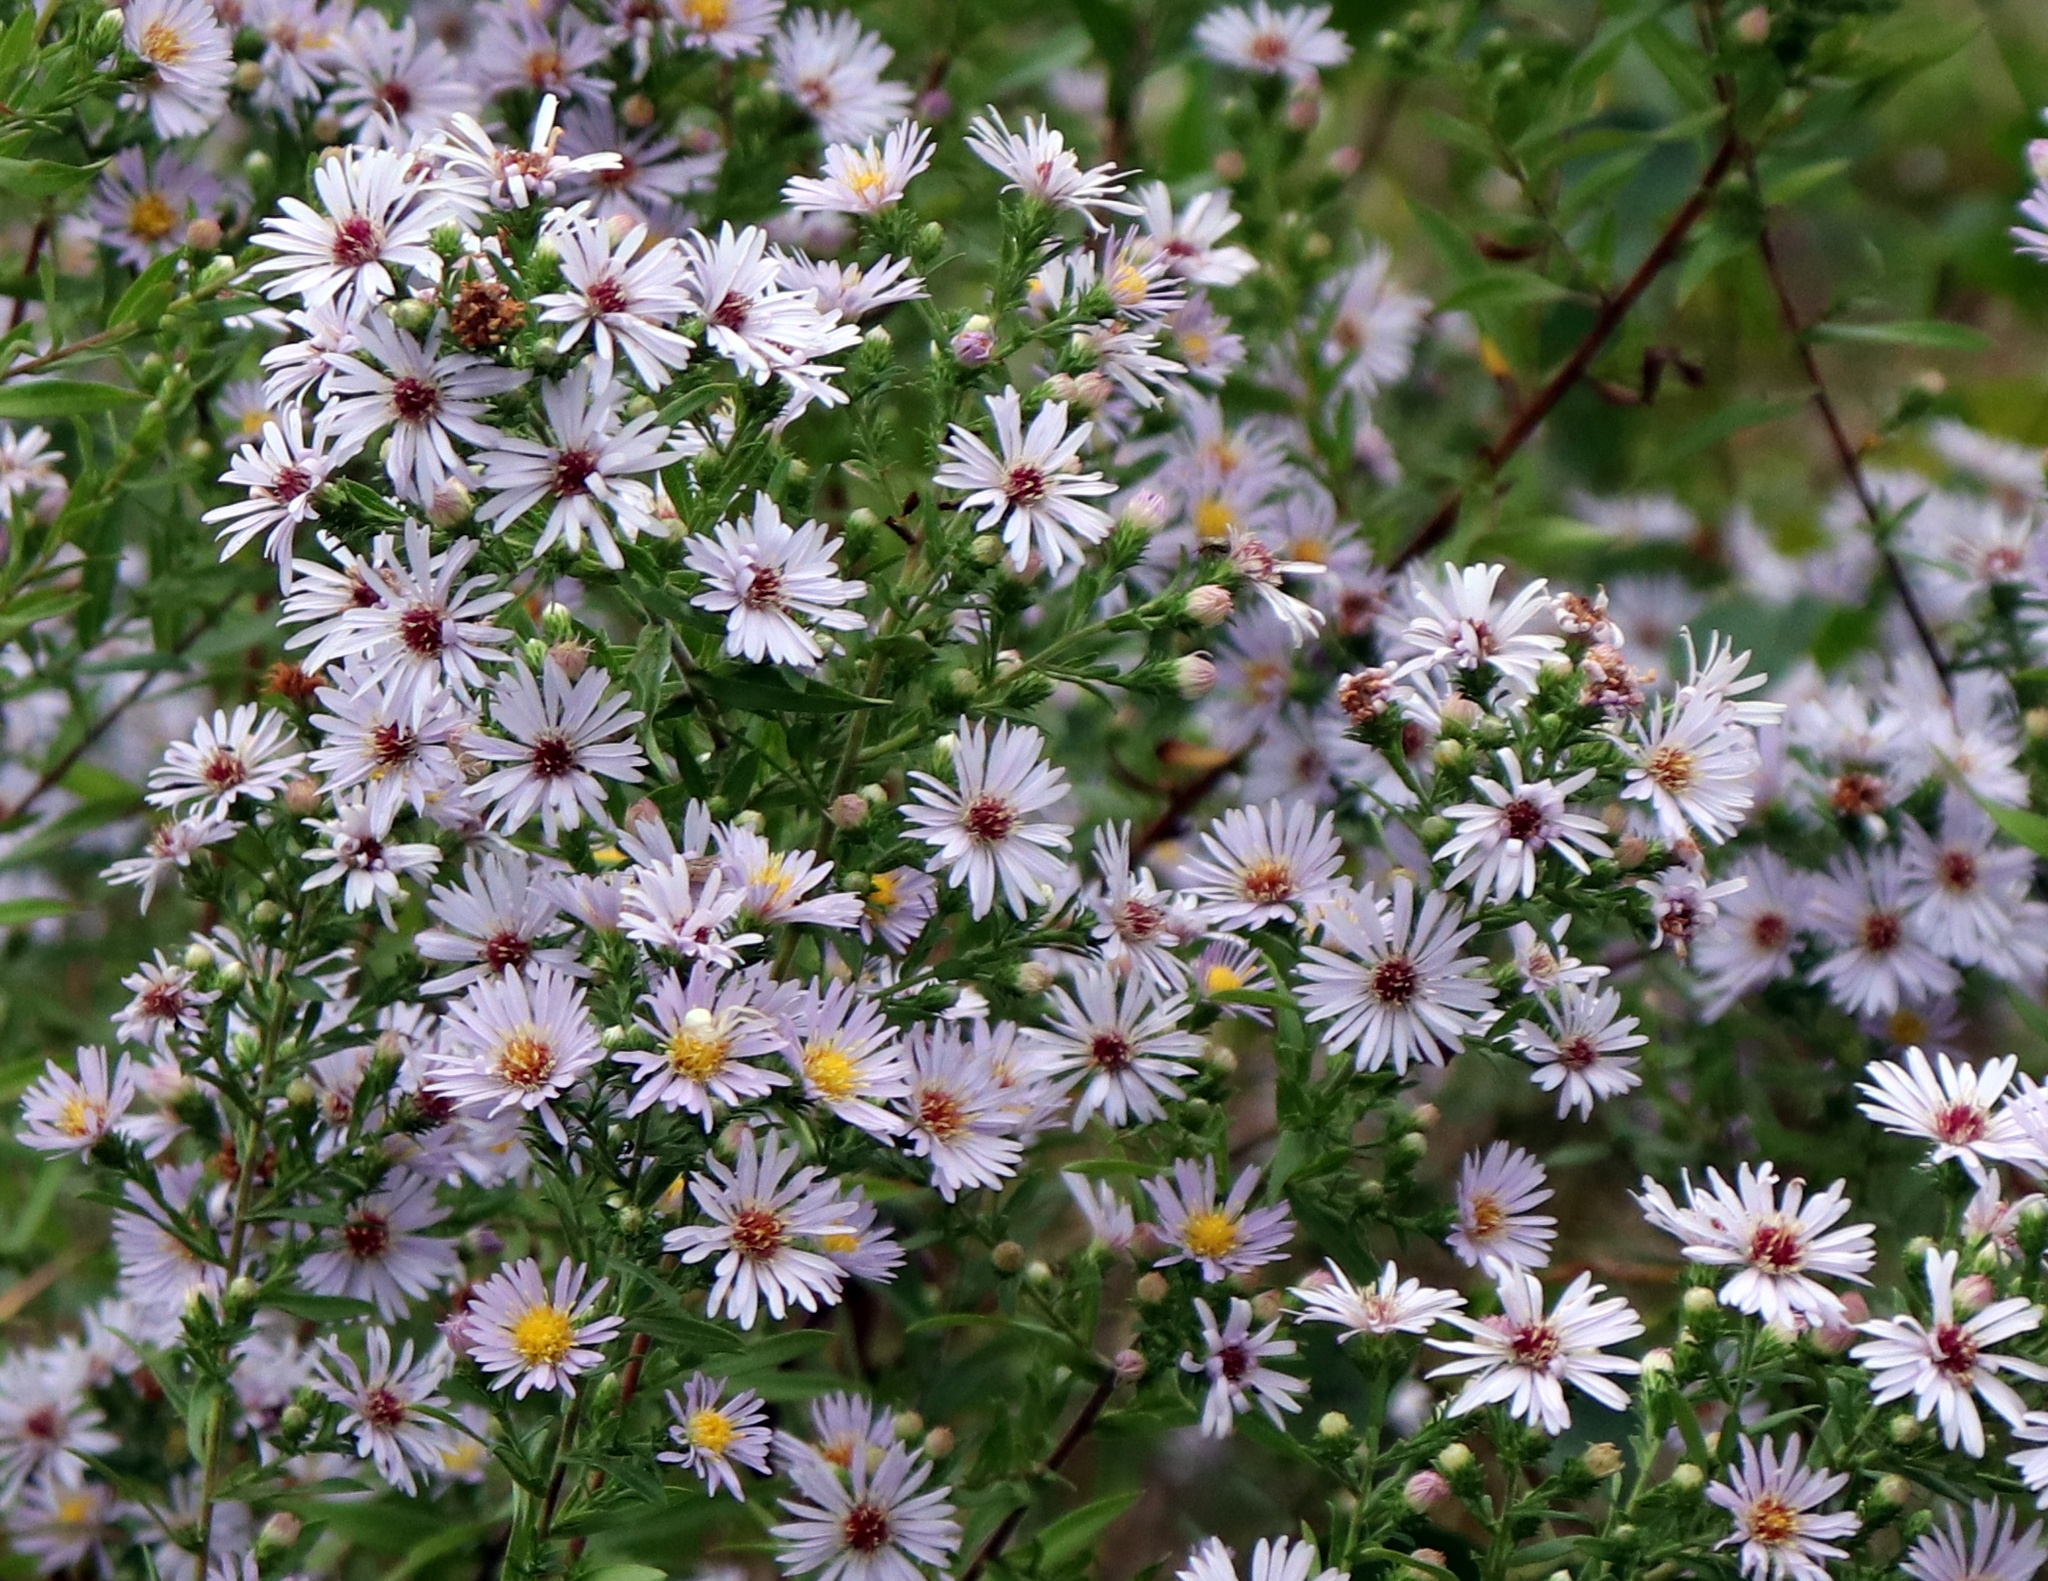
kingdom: Plantae
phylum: Tracheophyta
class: Magnoliopsida
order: Asterales
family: Asteraceae
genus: Symphyotrichum
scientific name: Symphyotrichum praealtum
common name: Willow aster
